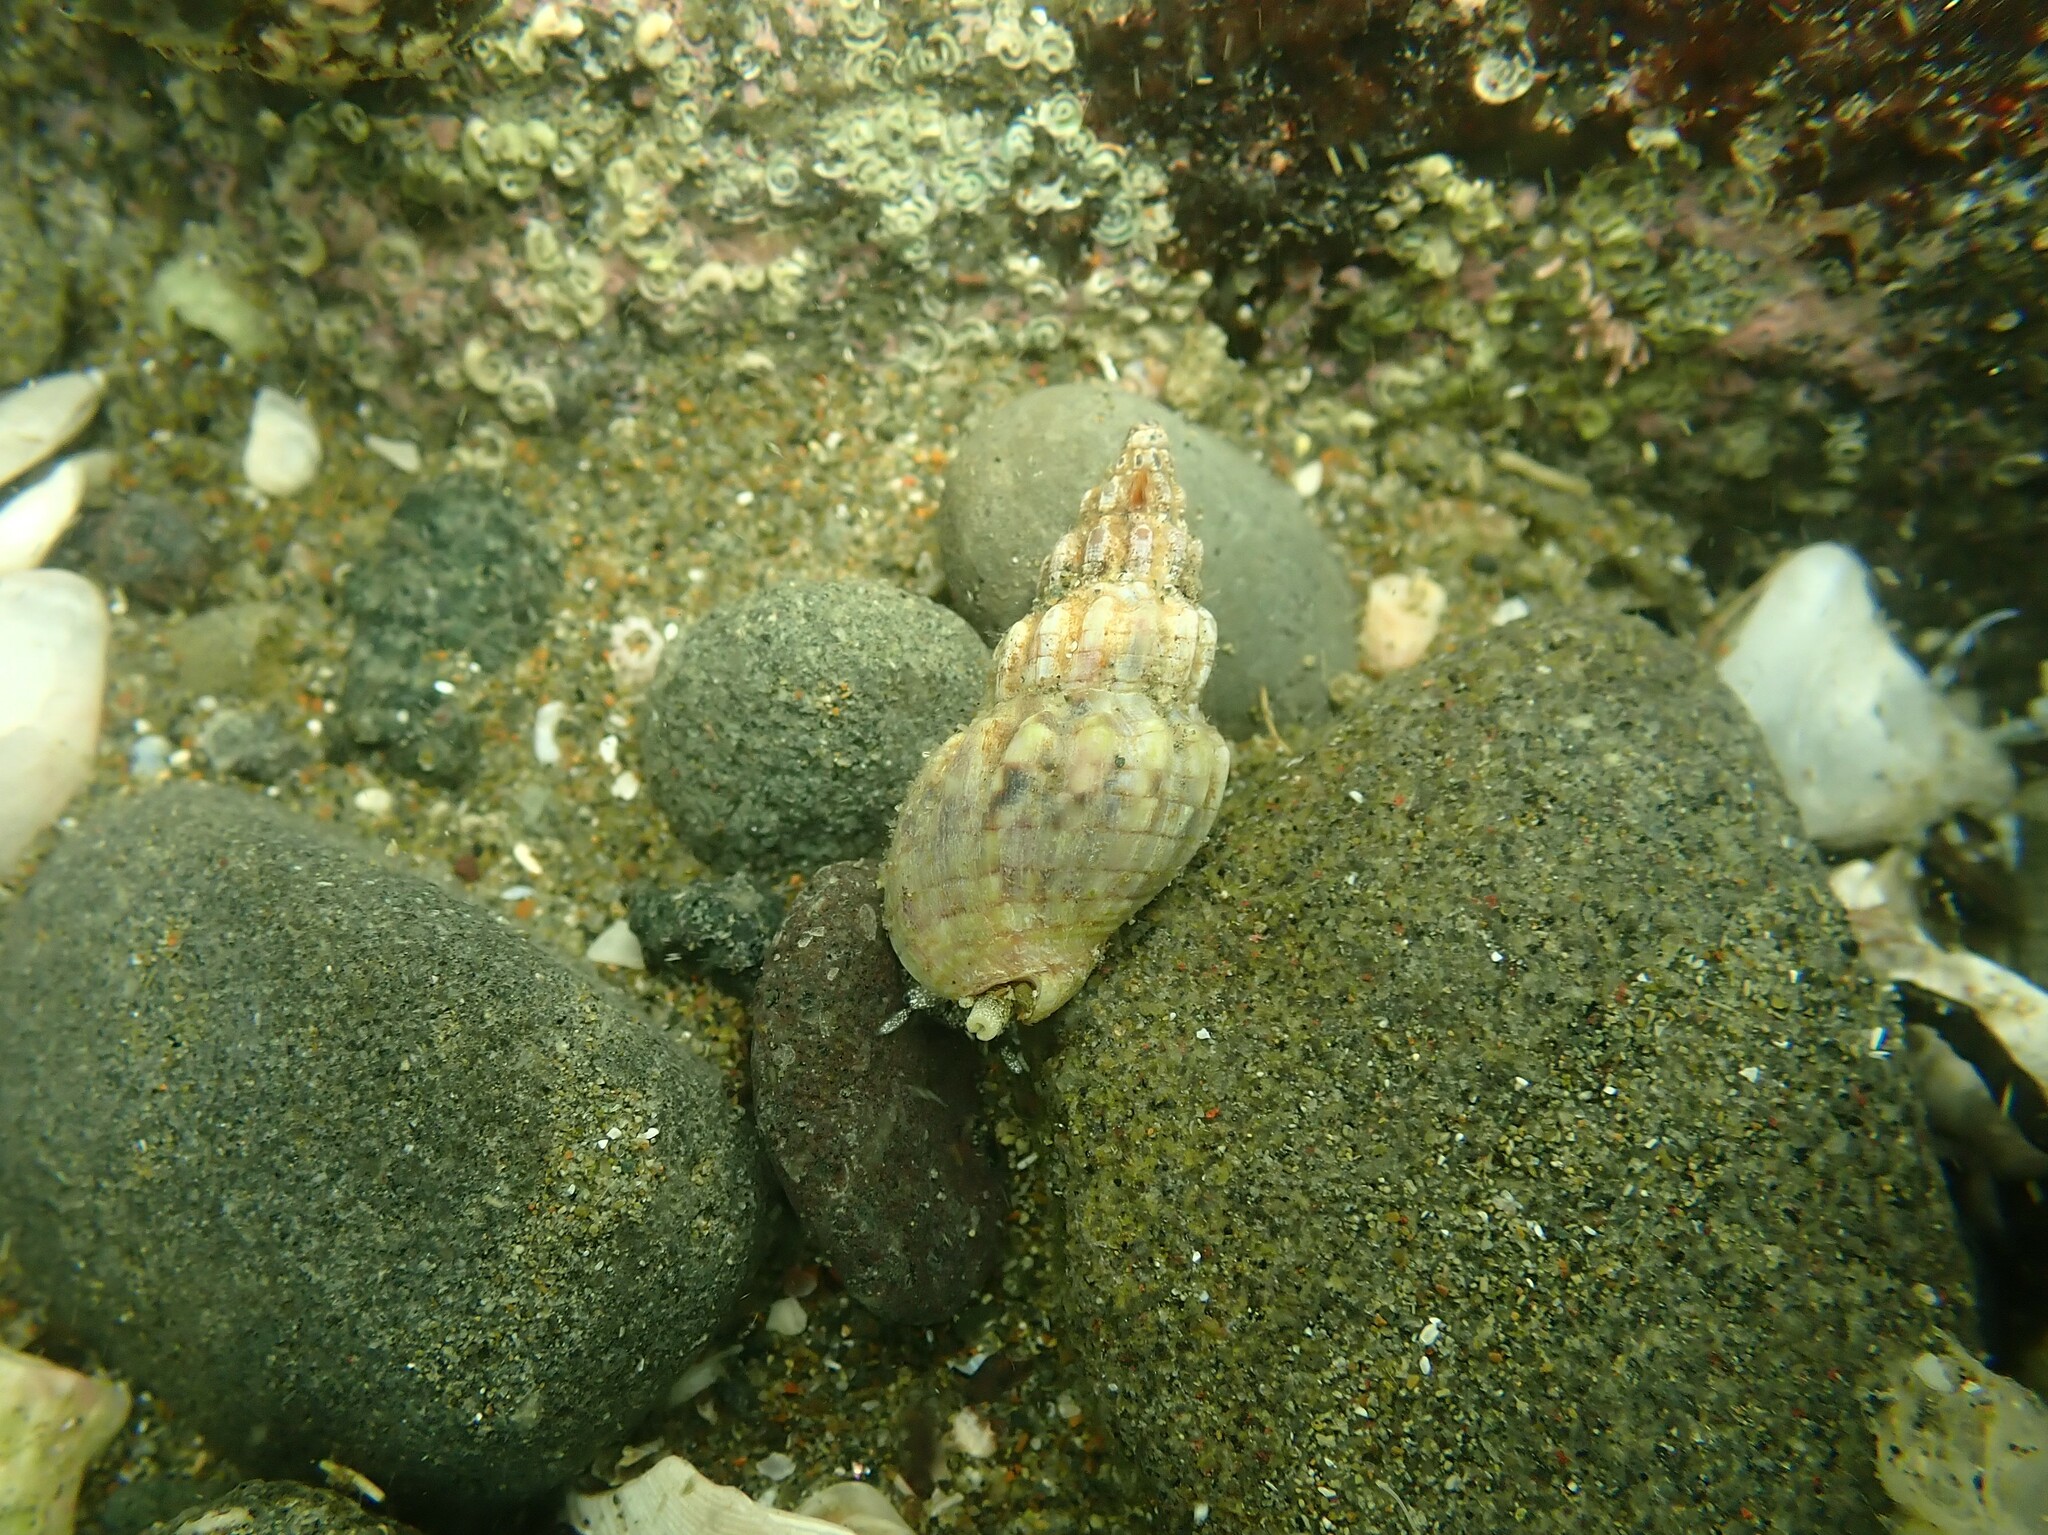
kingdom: Animalia
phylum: Mollusca
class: Gastropoda
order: Neogastropoda
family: Cominellidae
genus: Cominella
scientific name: Cominella quoyana
